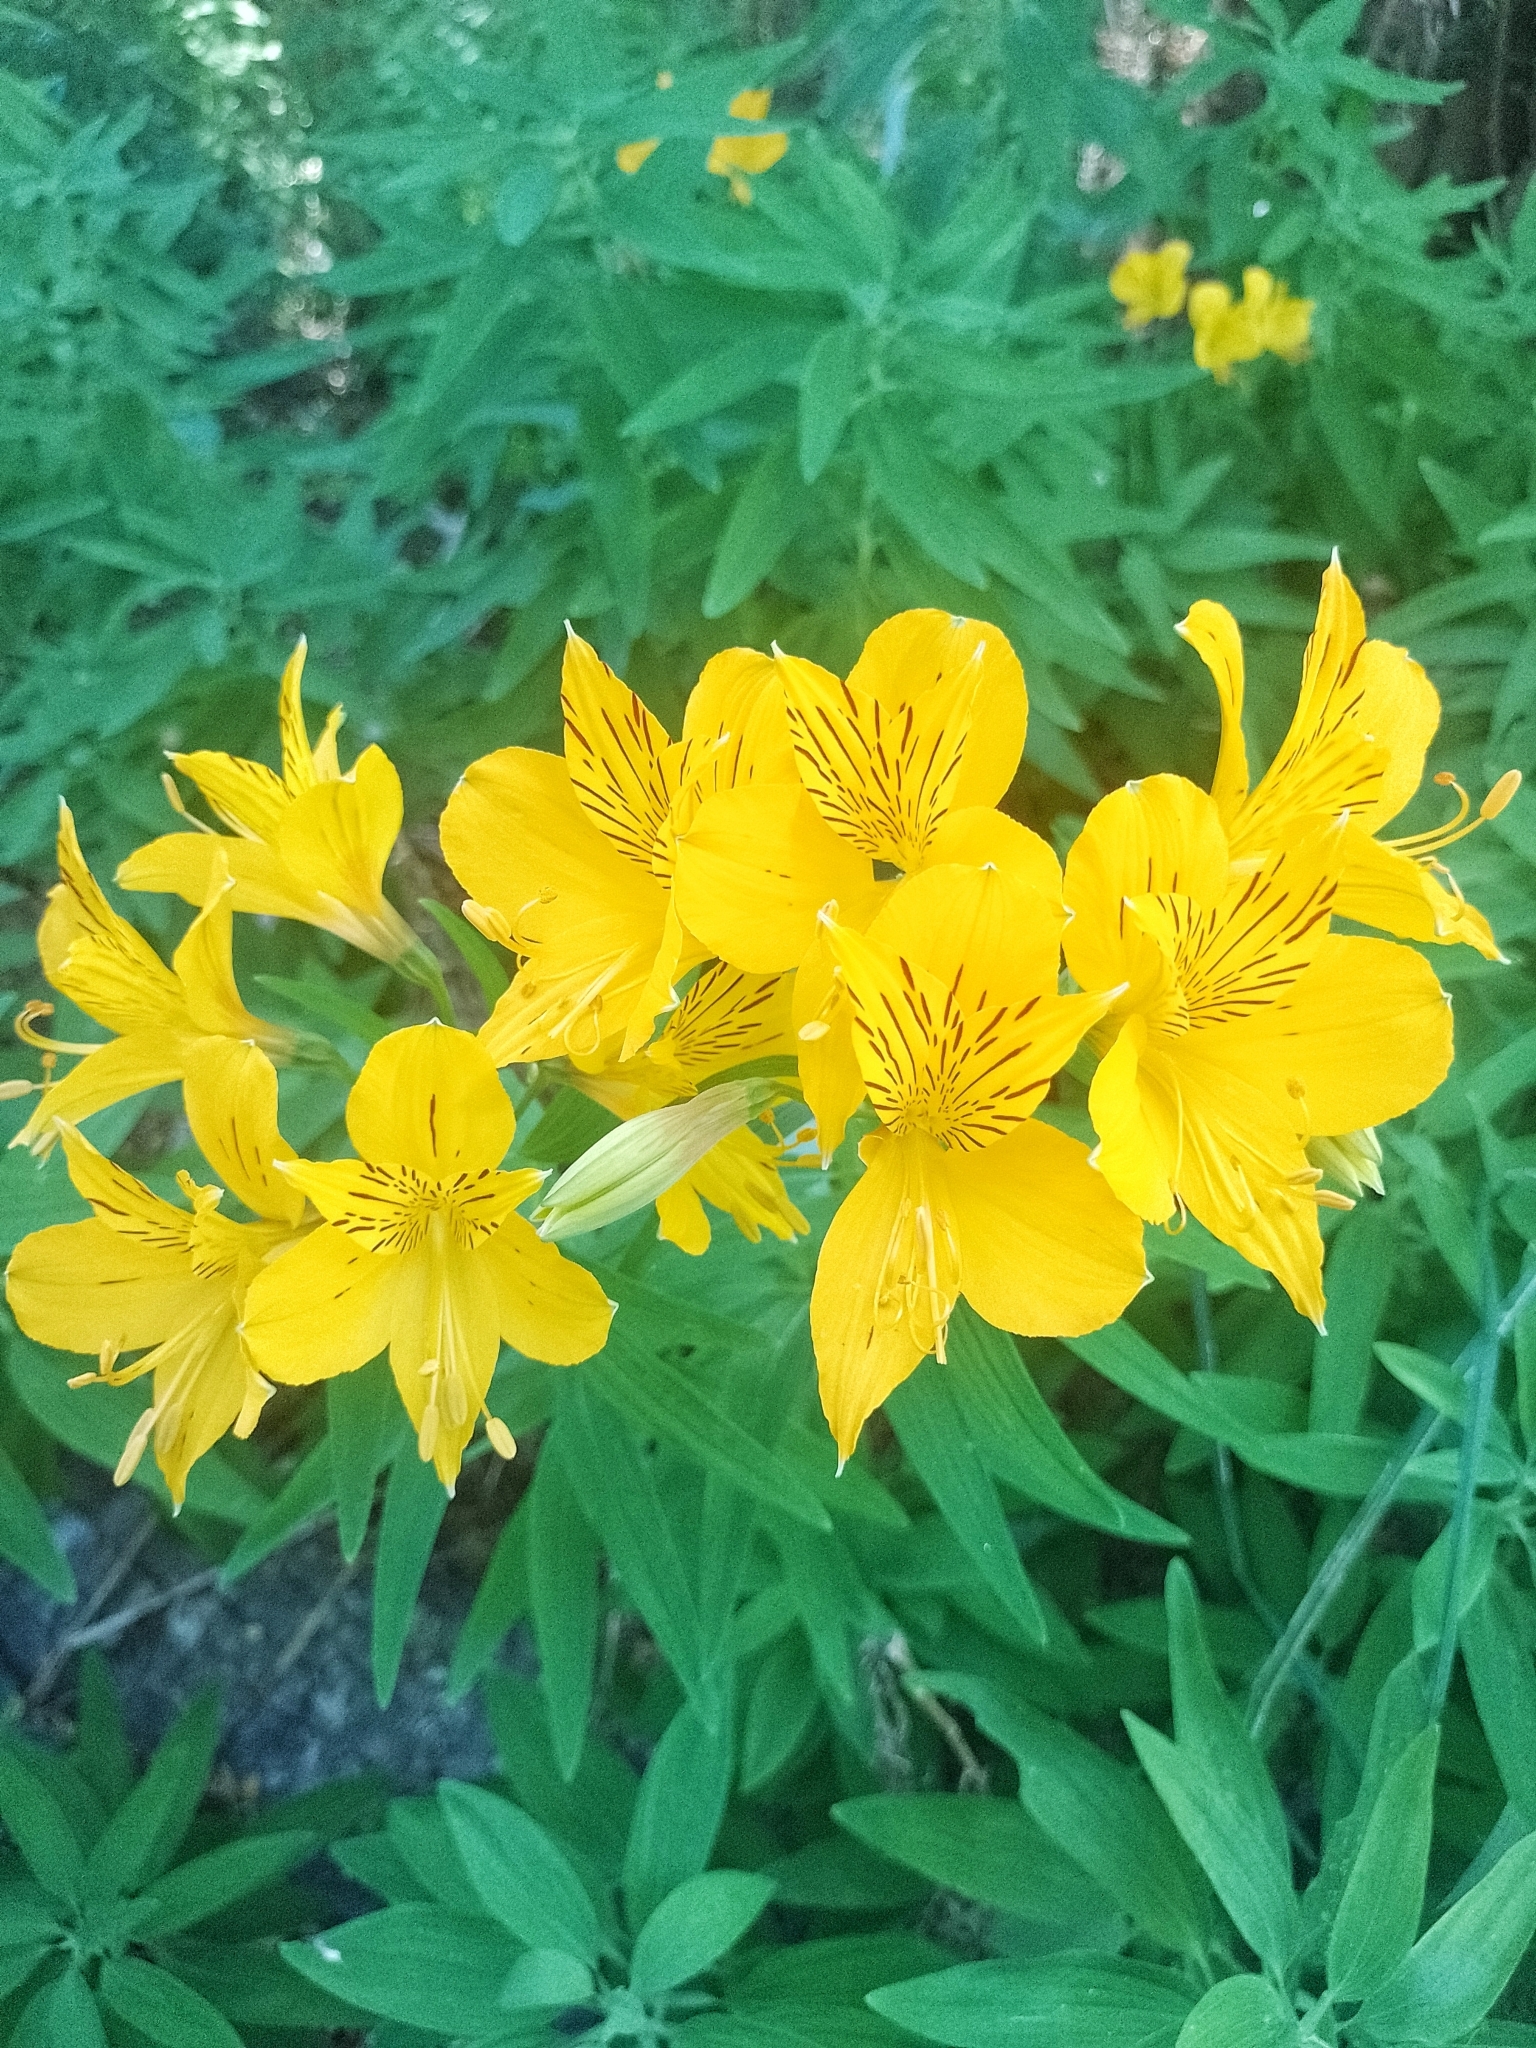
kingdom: Plantae
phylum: Tracheophyta
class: Liliopsida
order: Liliales
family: Alstroemeriaceae
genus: Alstroemeria
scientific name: Alstroemeria aurea
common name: Peruvian lily
